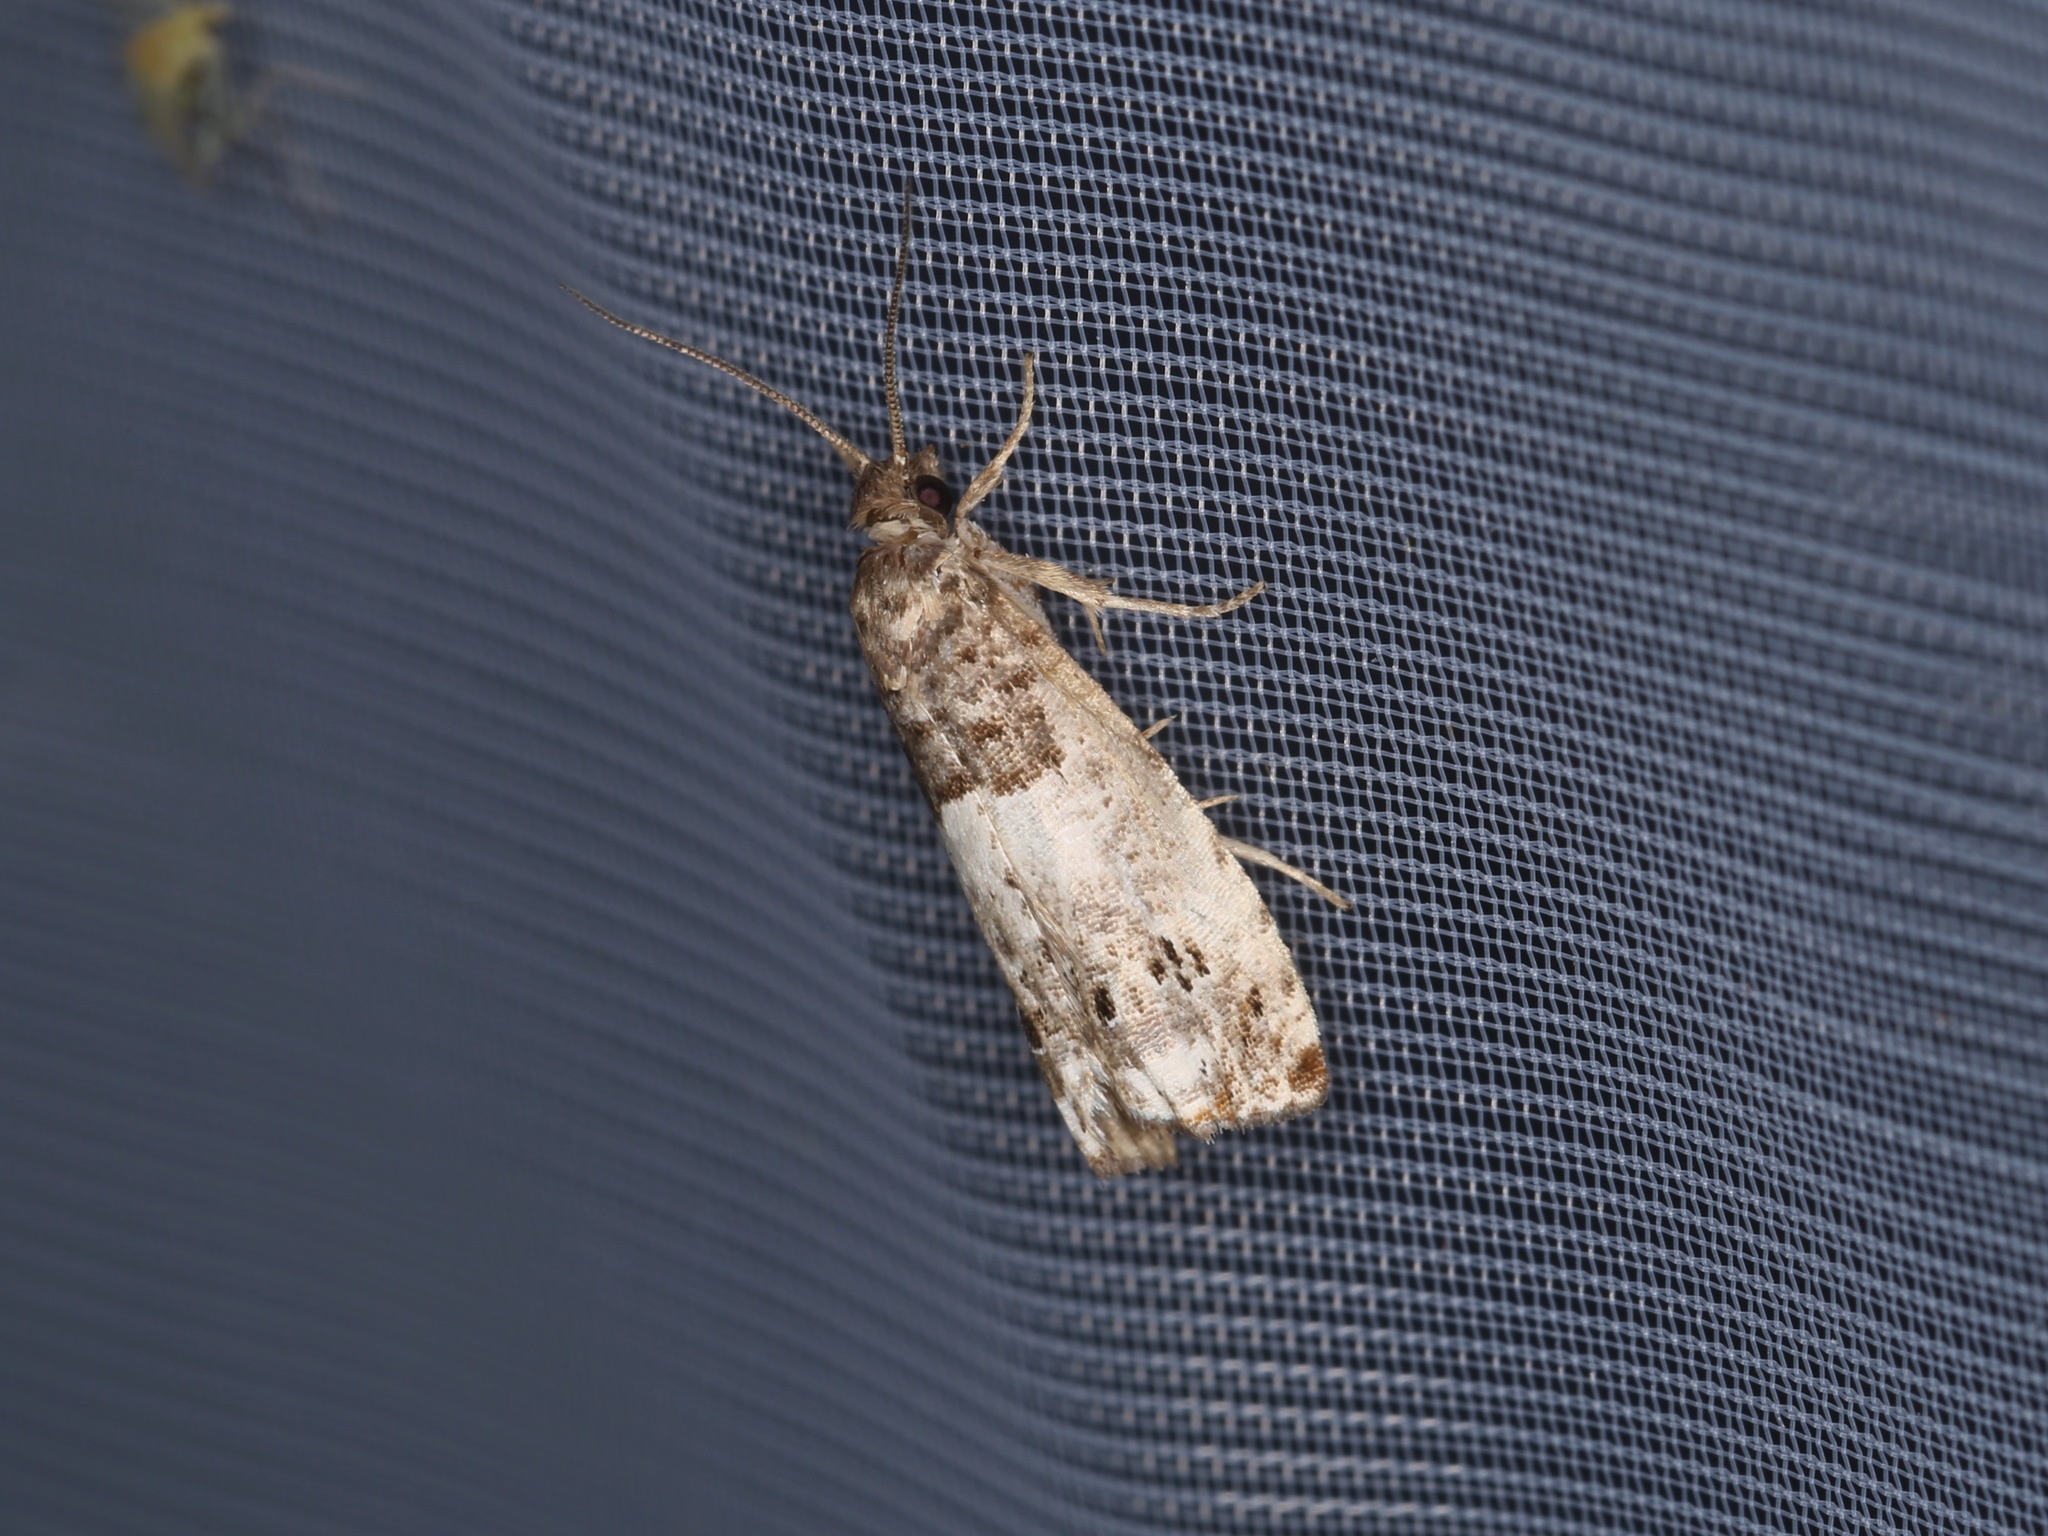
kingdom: Animalia
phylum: Arthropoda
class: Insecta
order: Lepidoptera
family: Tortricidae
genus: Notocelia
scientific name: Notocelia trimaculana
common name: Triple-blotched bell
